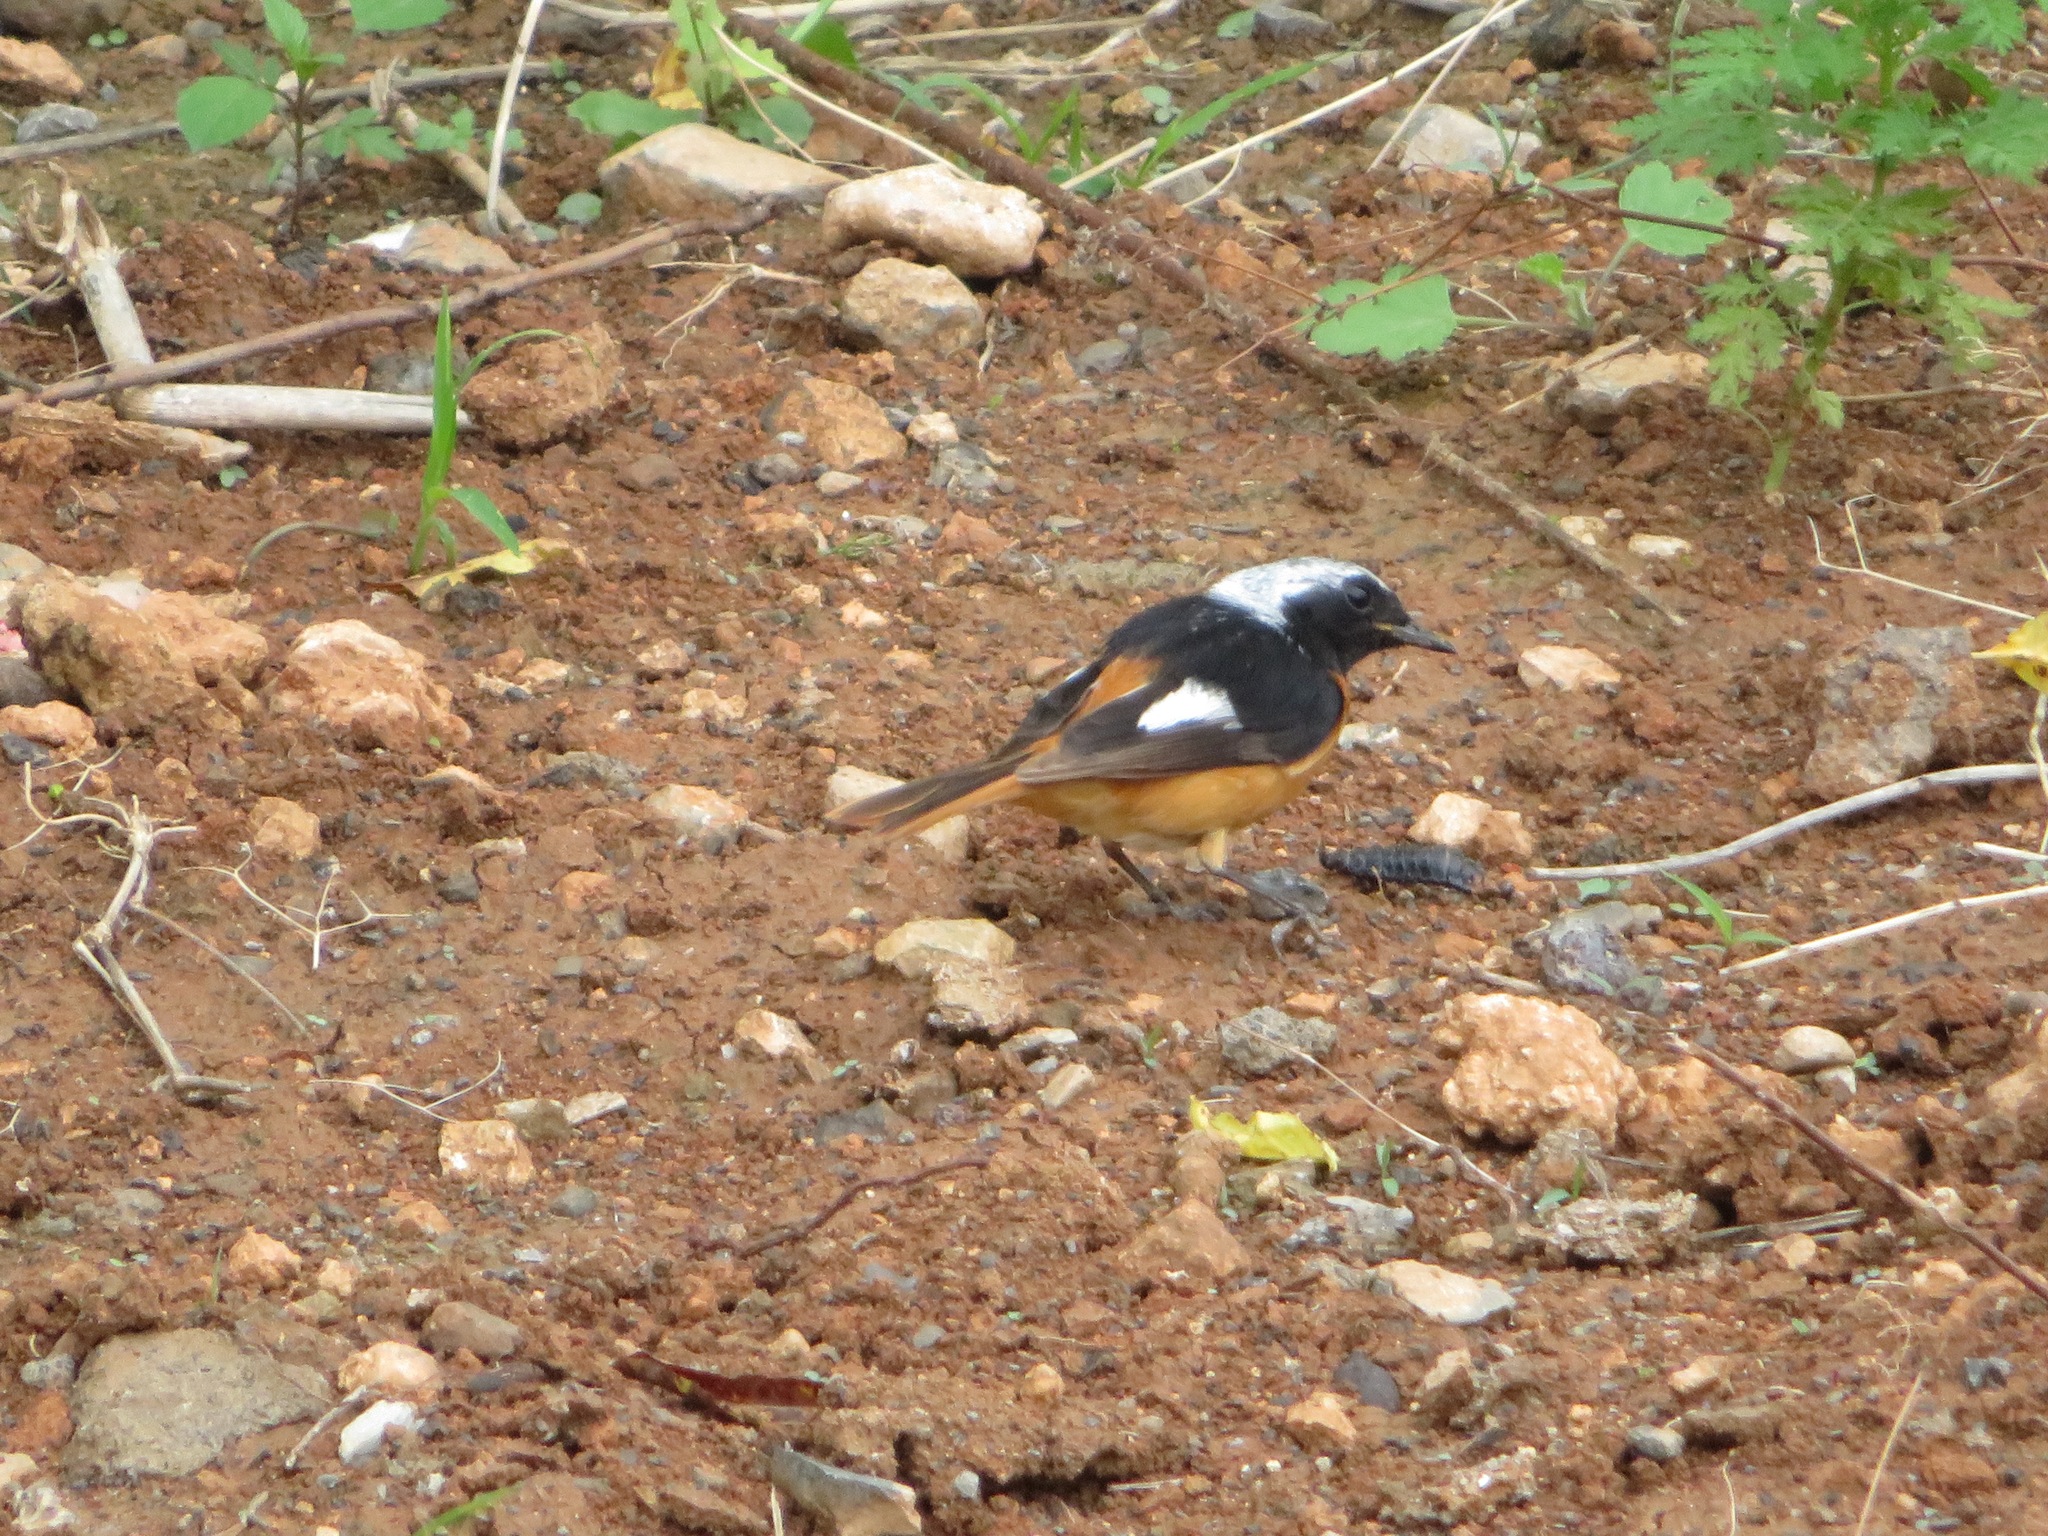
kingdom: Animalia
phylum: Chordata
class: Aves
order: Passeriformes
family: Muscicapidae
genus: Phoenicurus
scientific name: Phoenicurus auroreus
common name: Daurian redstart
